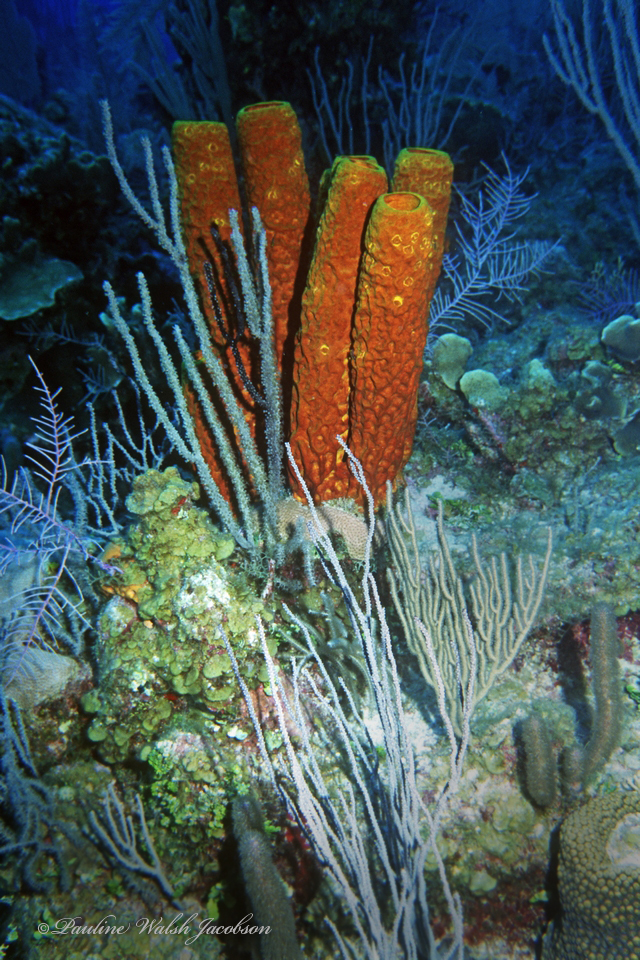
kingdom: Animalia
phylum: Porifera
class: Demospongiae
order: Verongiida
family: Aplysinidae
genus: Aplysina
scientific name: Aplysina fistularis
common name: Candle sponge
